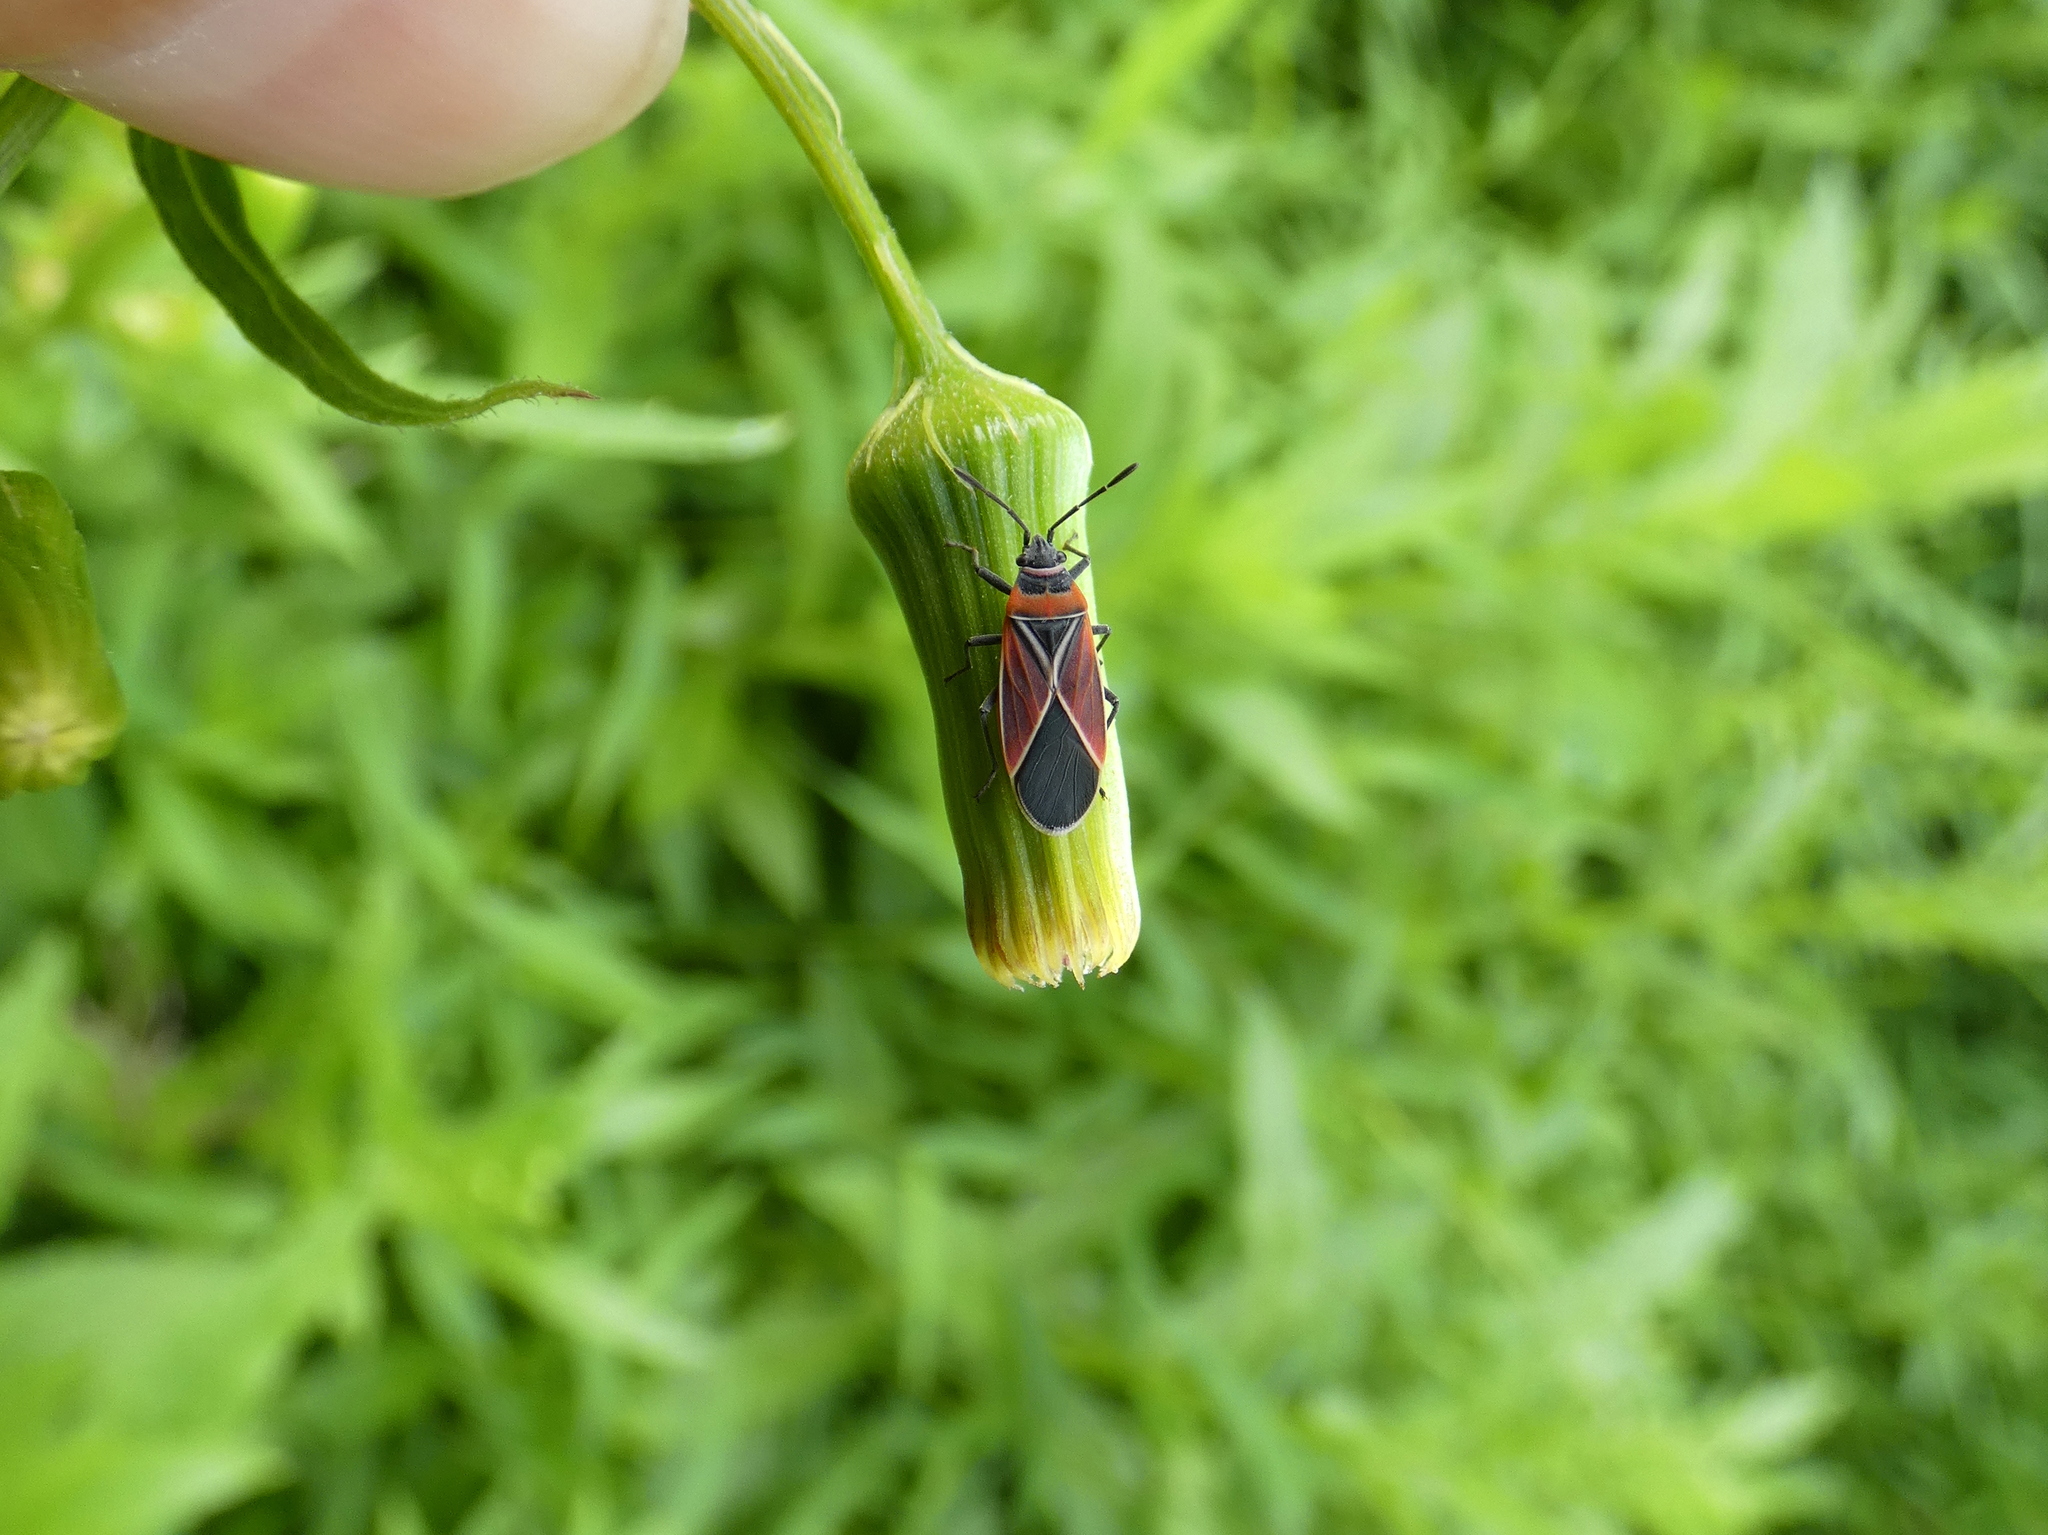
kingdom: Animalia
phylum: Arthropoda
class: Insecta
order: Hemiptera
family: Lygaeidae
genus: Neacoryphus
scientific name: Neacoryphus bicrucis
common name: Lygaeid bug
